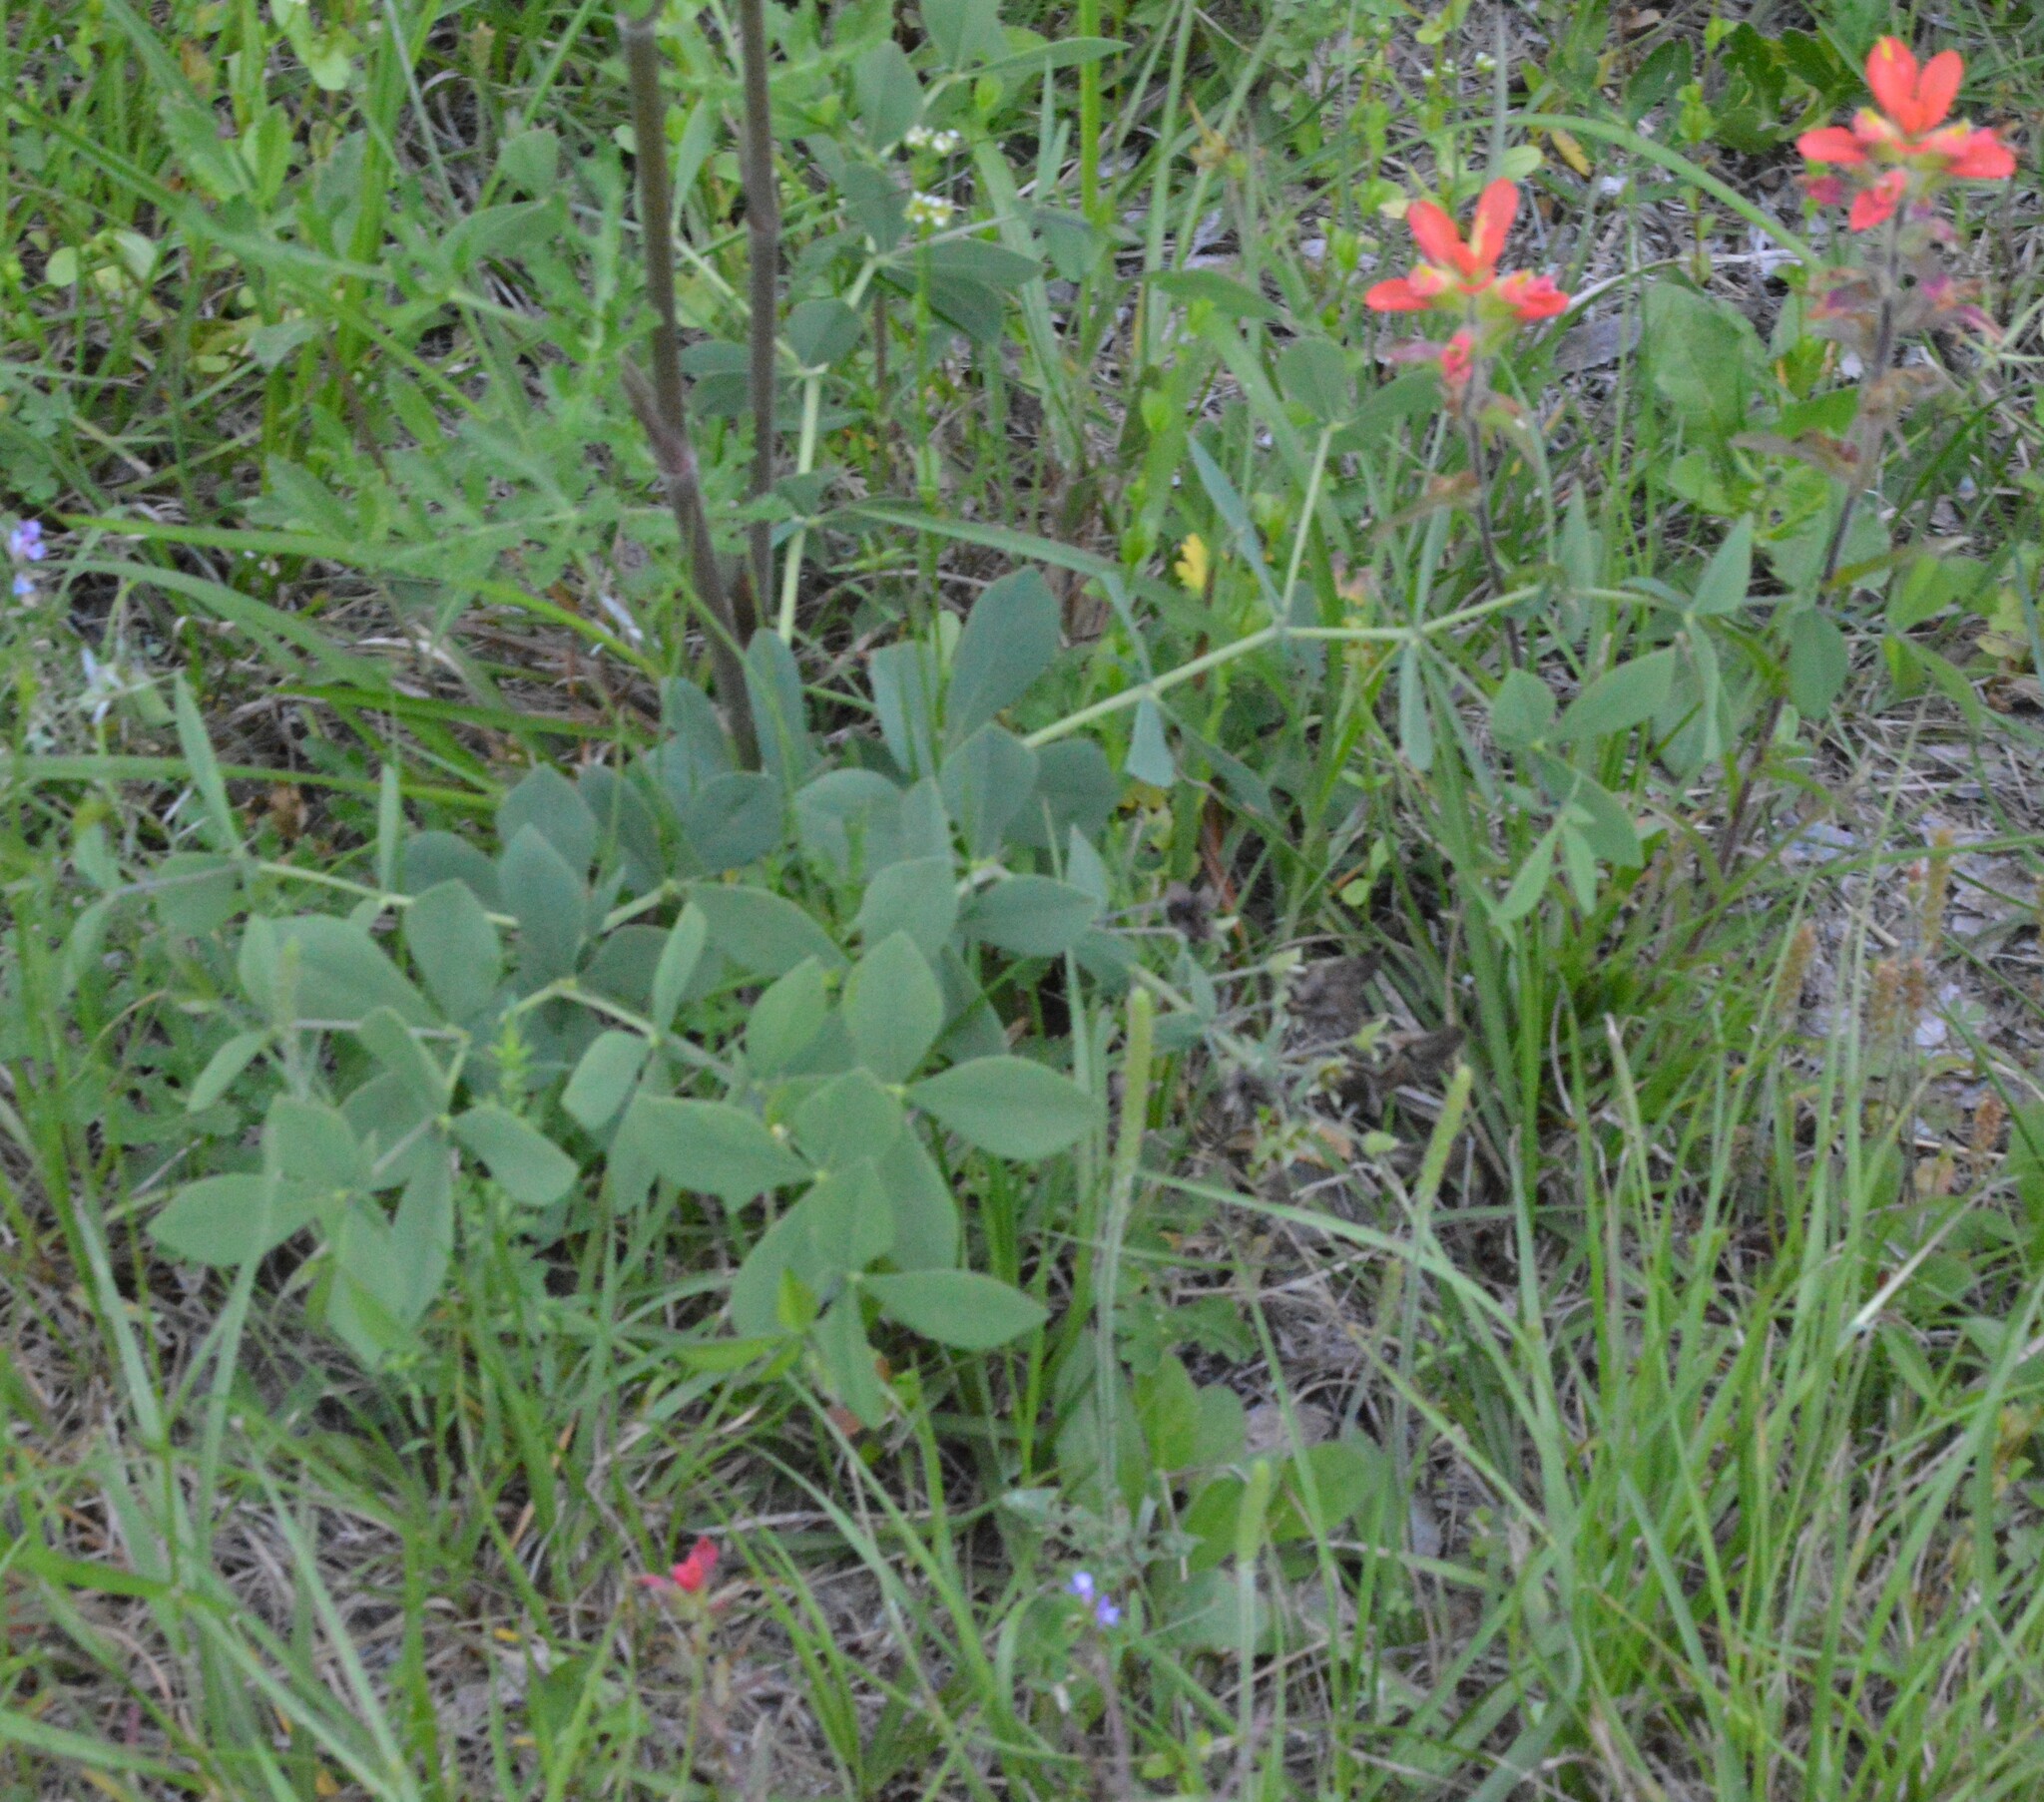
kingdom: Plantae
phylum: Tracheophyta
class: Magnoliopsida
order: Fabales
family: Fabaceae
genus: Baptisia
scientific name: Baptisia bracteata
